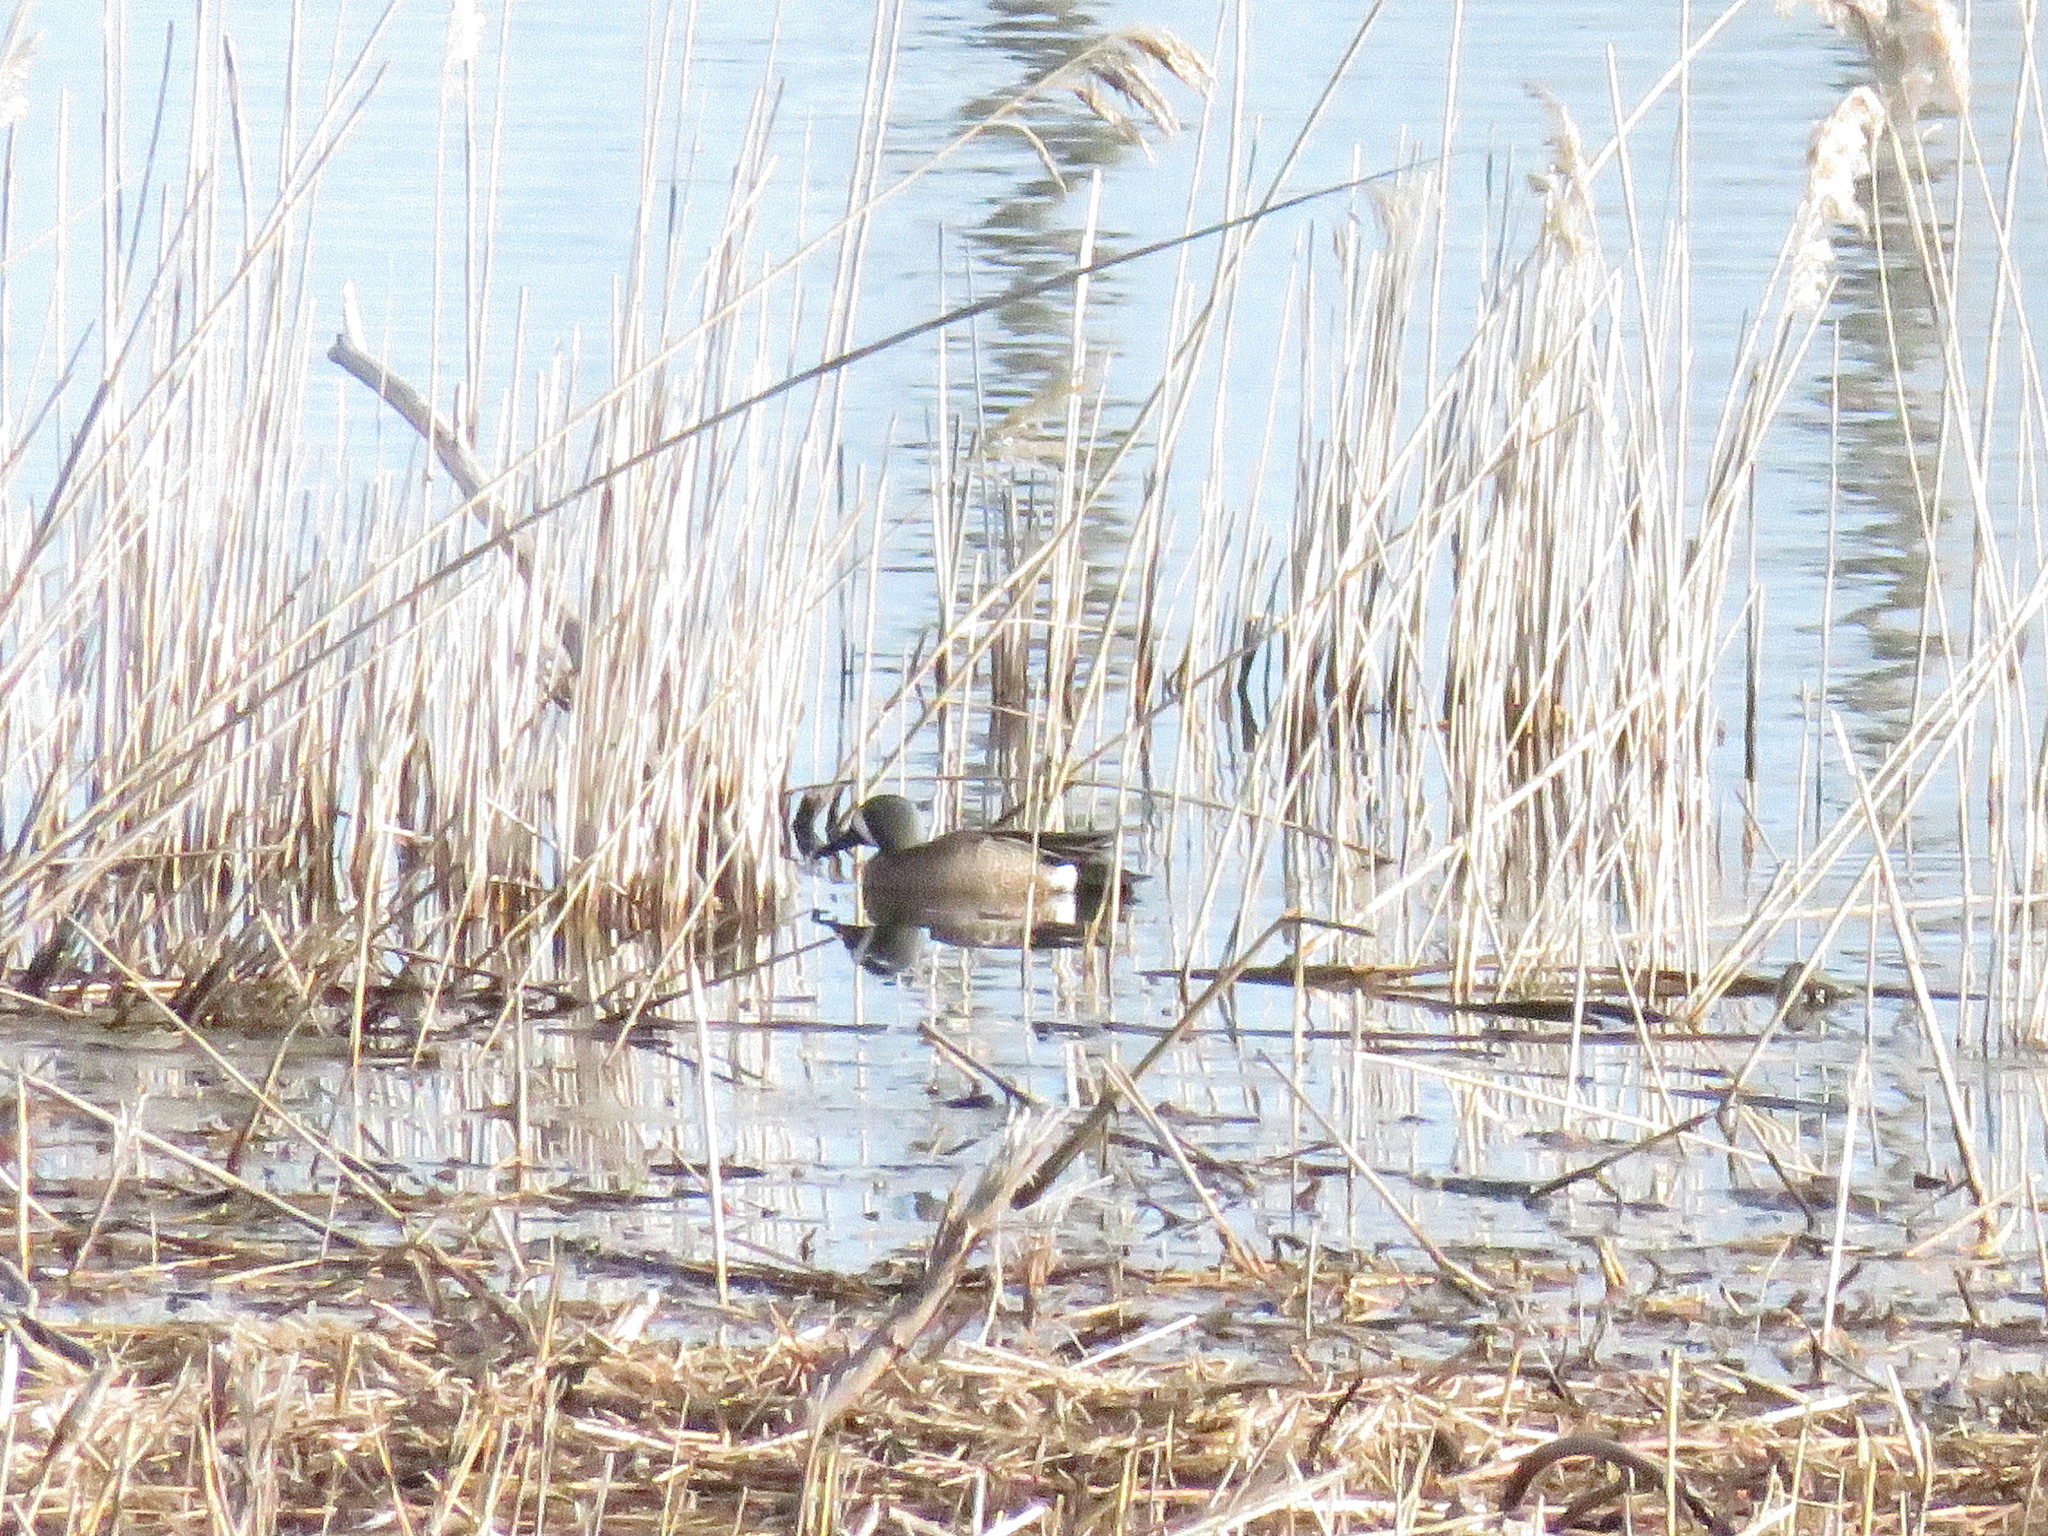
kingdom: Animalia
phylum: Chordata
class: Aves
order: Anseriformes
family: Anatidae
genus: Spatula
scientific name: Spatula discors
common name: Blue-winged teal
